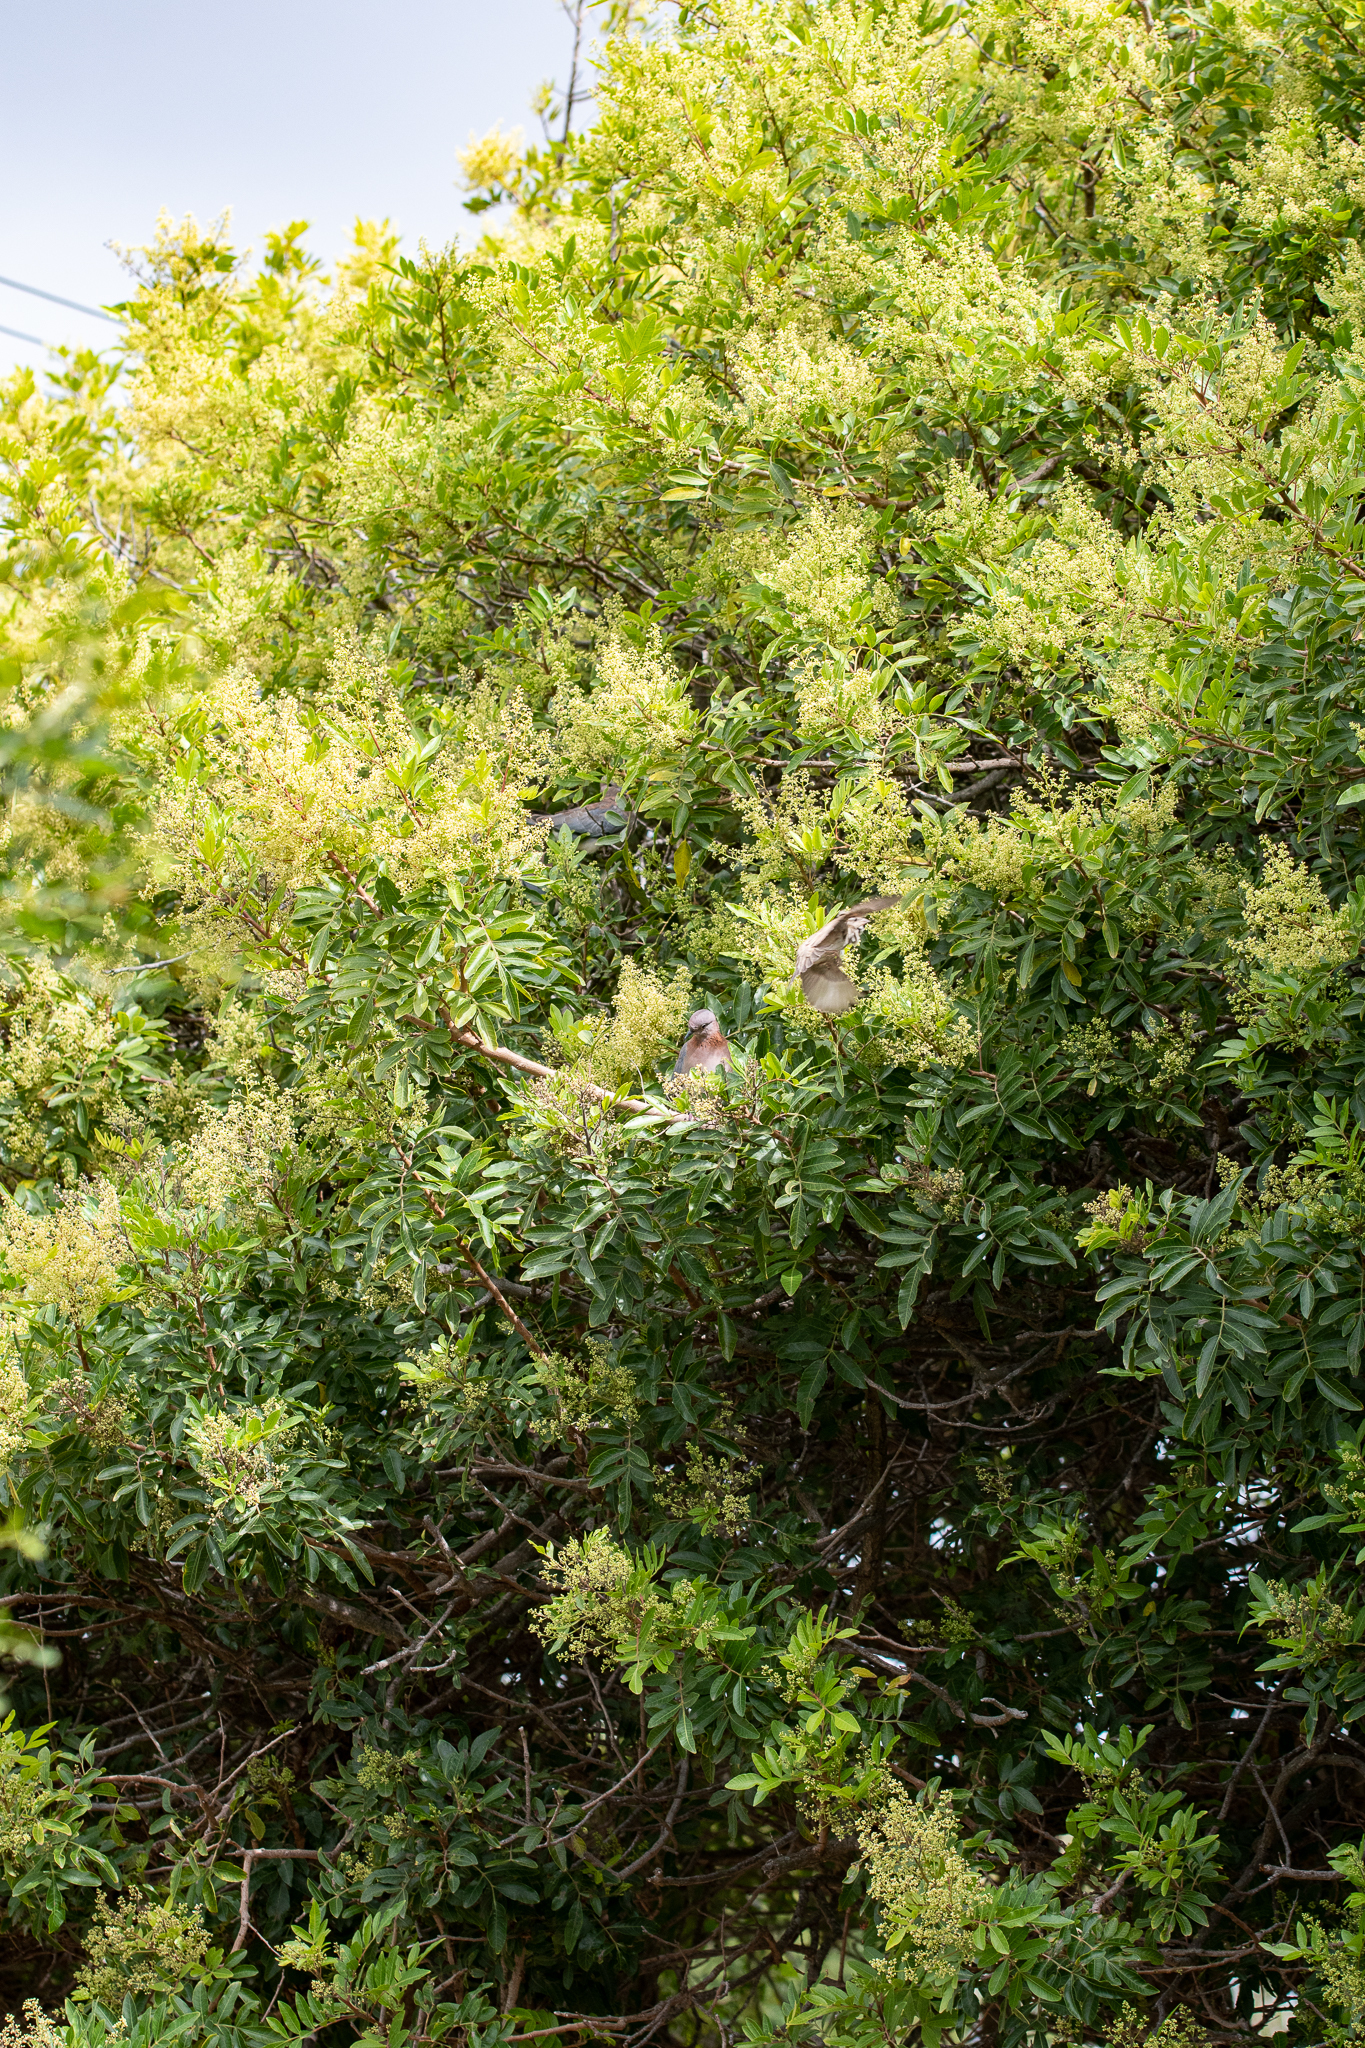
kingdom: Plantae
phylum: Tracheophyta
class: Magnoliopsida
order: Sapindales
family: Anacardiaceae
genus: Schinus
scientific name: Schinus terebinthifolia
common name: Brazilian peppertree
